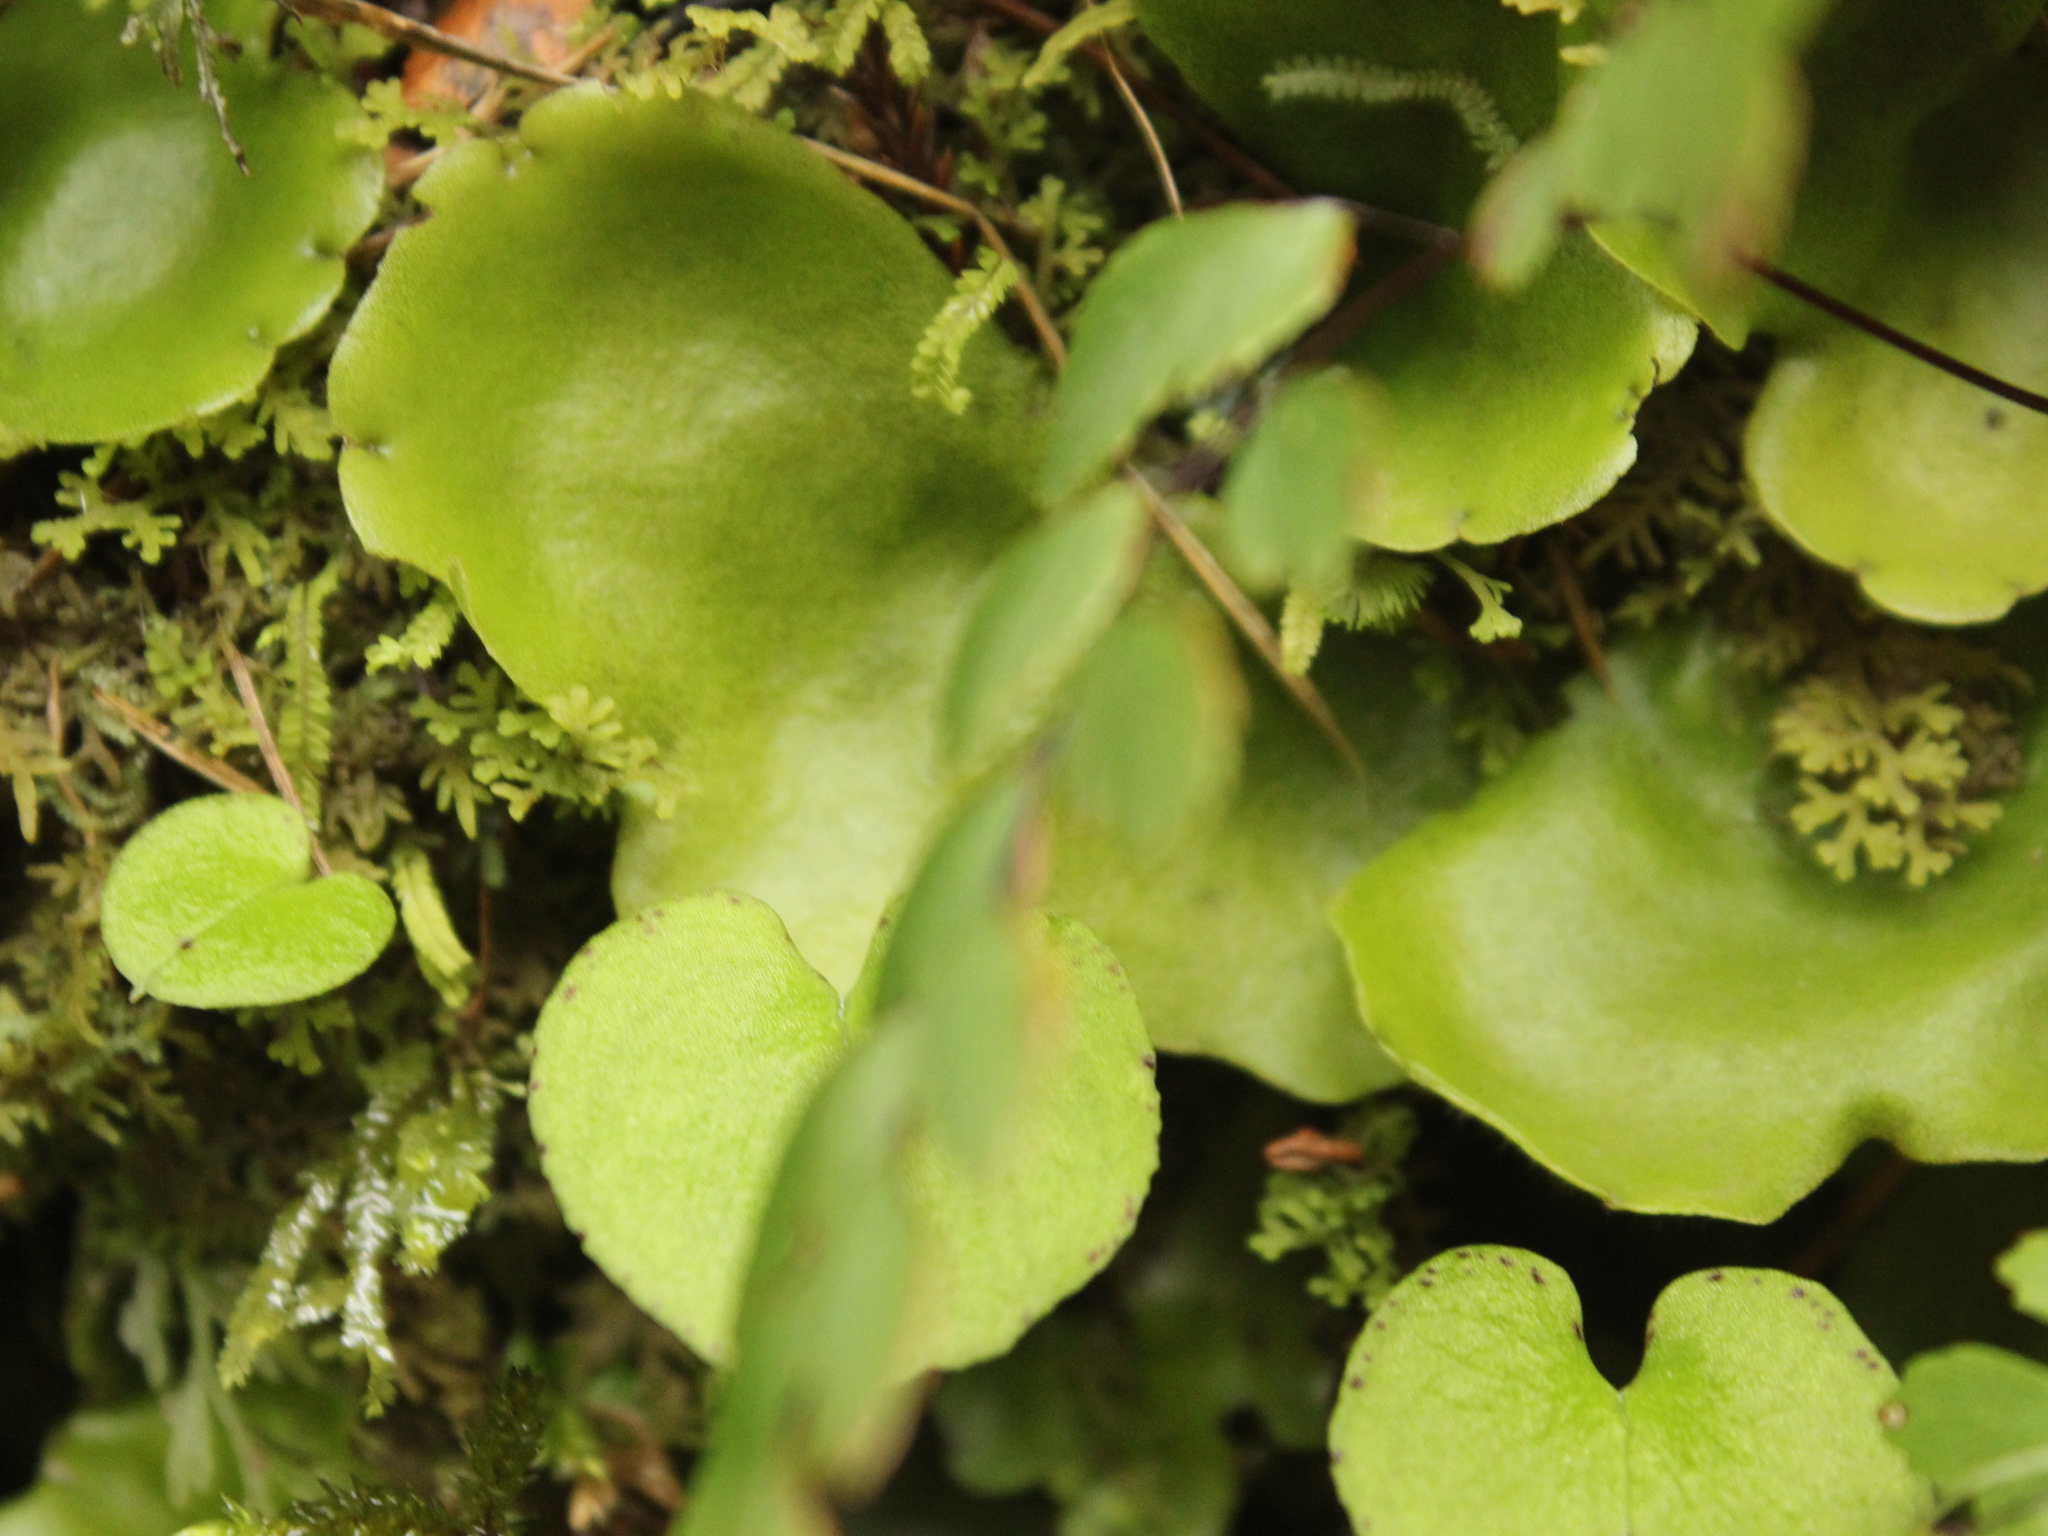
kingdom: Plantae
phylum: Marchantiophyta
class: Marchantiopsida
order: Marchantiales
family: Monocleaceae
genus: Monoclea
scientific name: Monoclea forsteri
